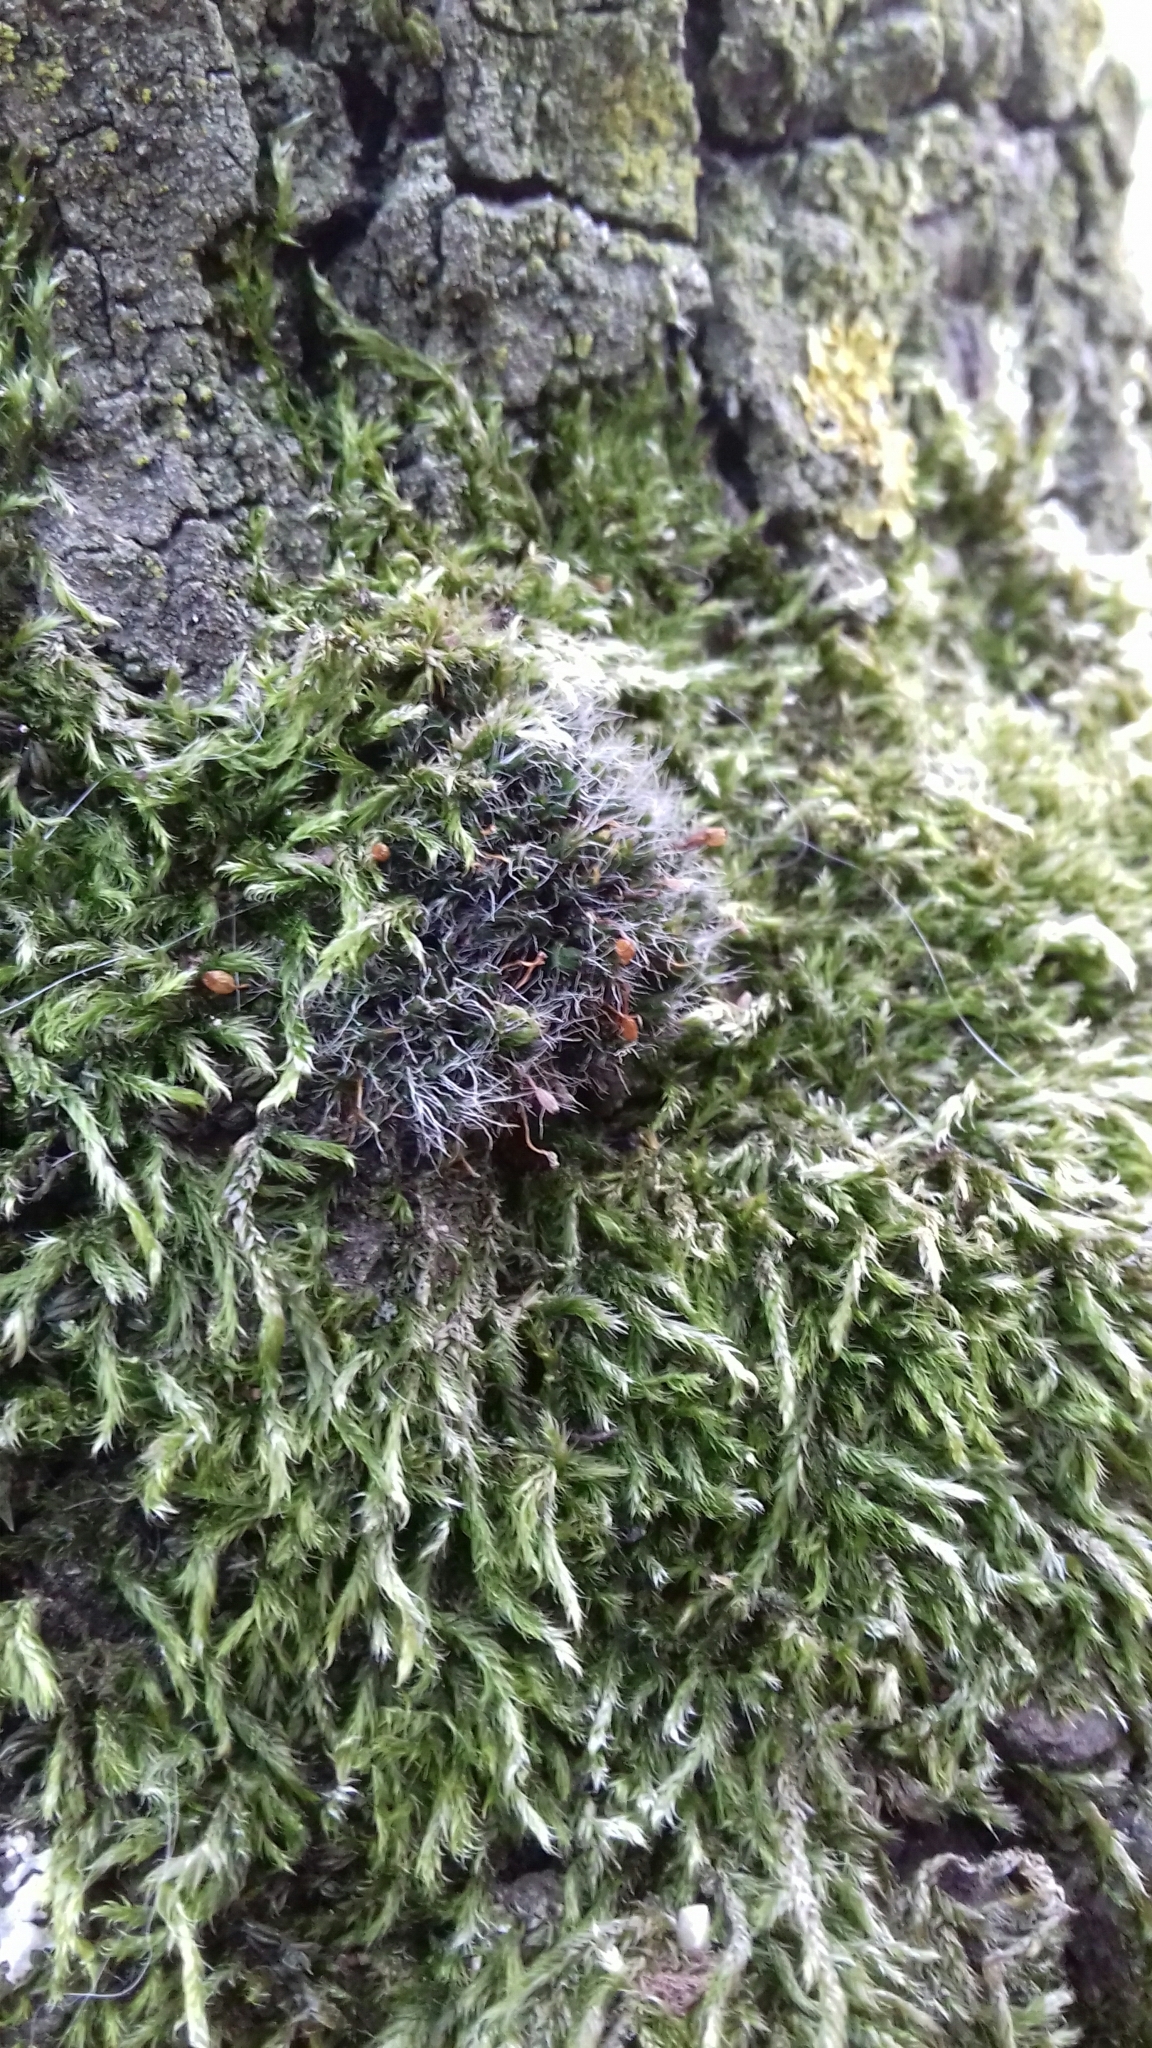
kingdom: Plantae
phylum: Bryophyta
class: Bryopsida
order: Grimmiales
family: Grimmiaceae
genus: Grimmia
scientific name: Grimmia pulvinata
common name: Grey-cushioned grimmia
